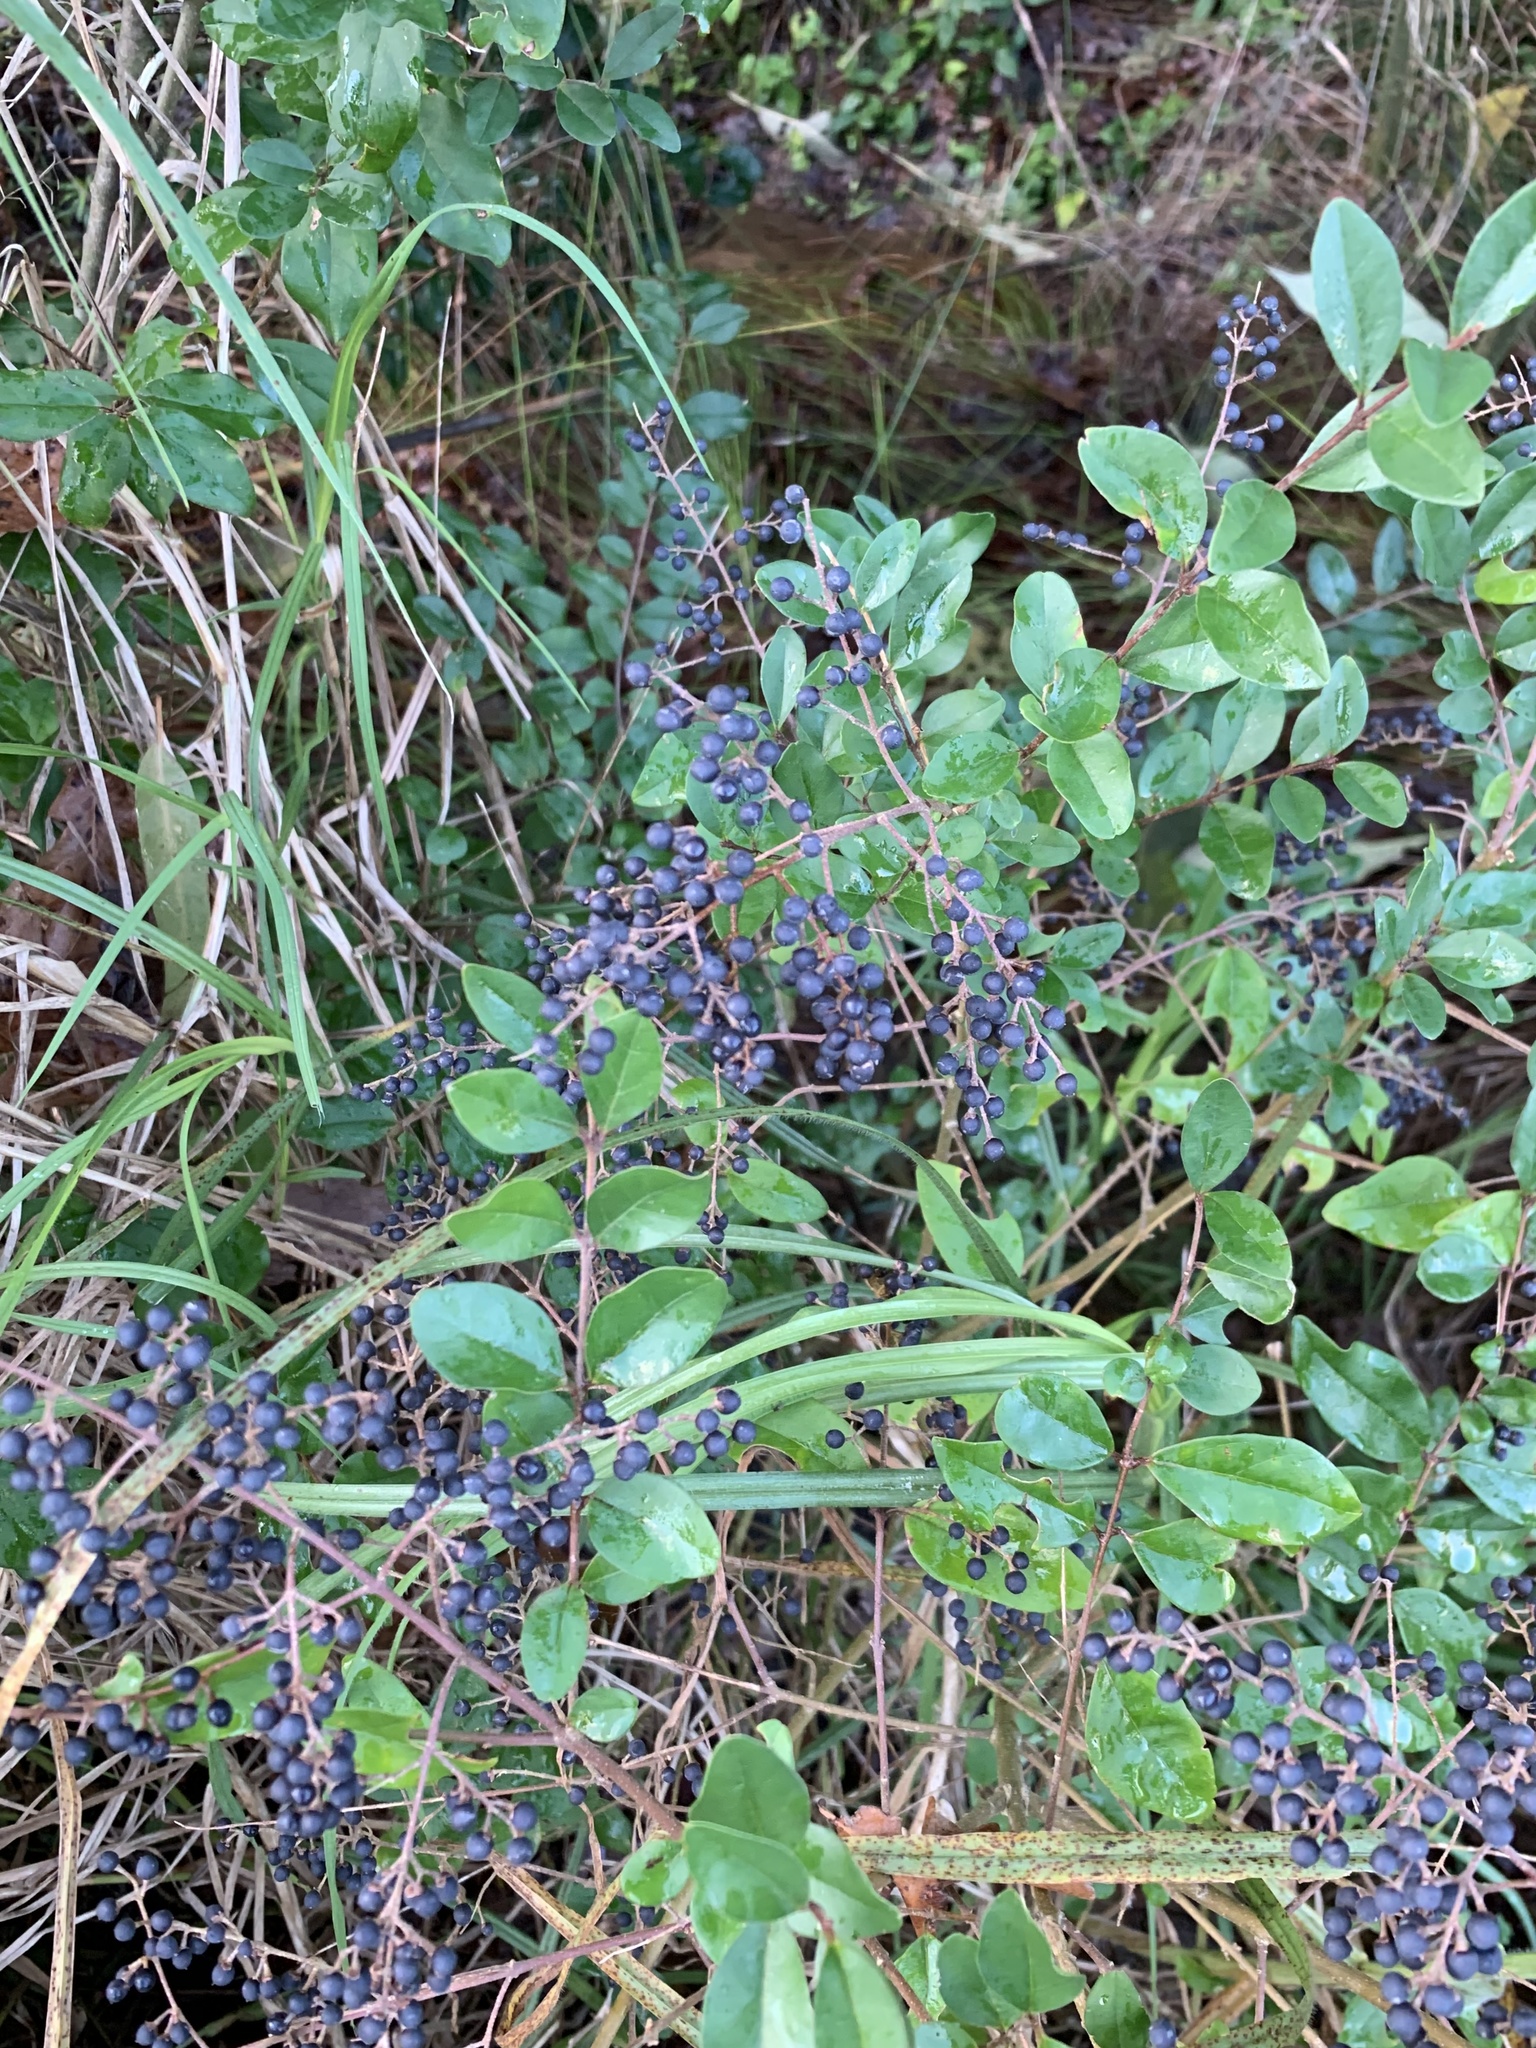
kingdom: Plantae
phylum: Tracheophyta
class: Magnoliopsida
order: Lamiales
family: Oleaceae
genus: Ligustrum
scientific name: Ligustrum sinense
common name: Chinese privet
